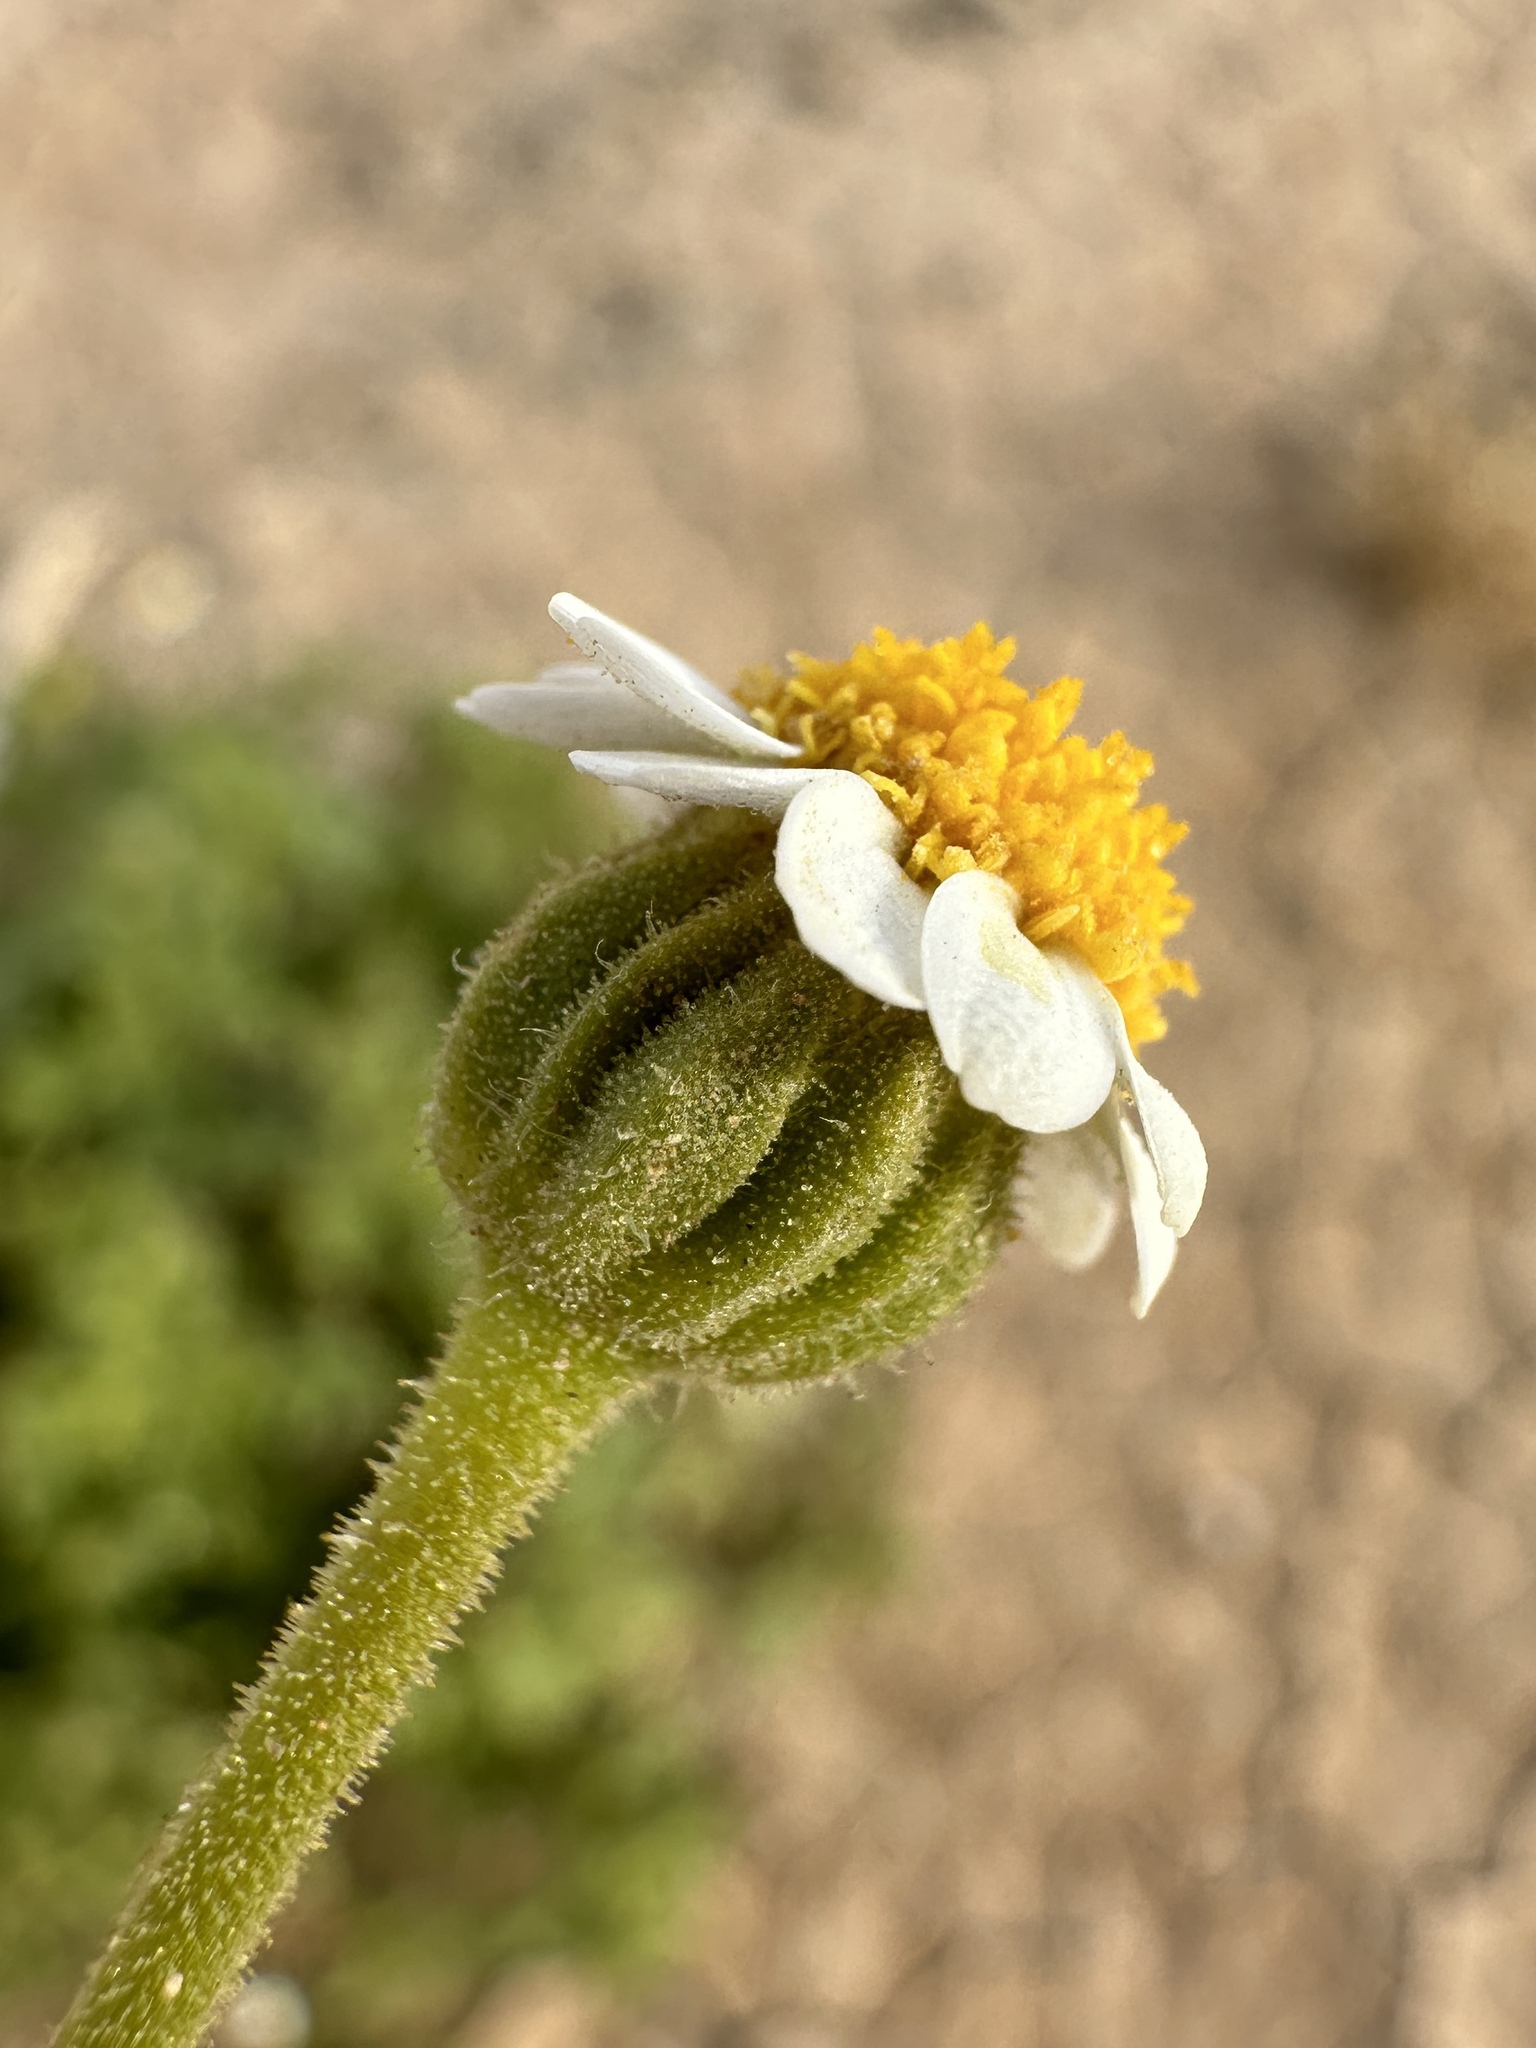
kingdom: Plantae
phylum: Tracheophyta
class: Magnoliopsida
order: Asterales
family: Asteraceae
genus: Laphamia
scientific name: Laphamia emoryi
